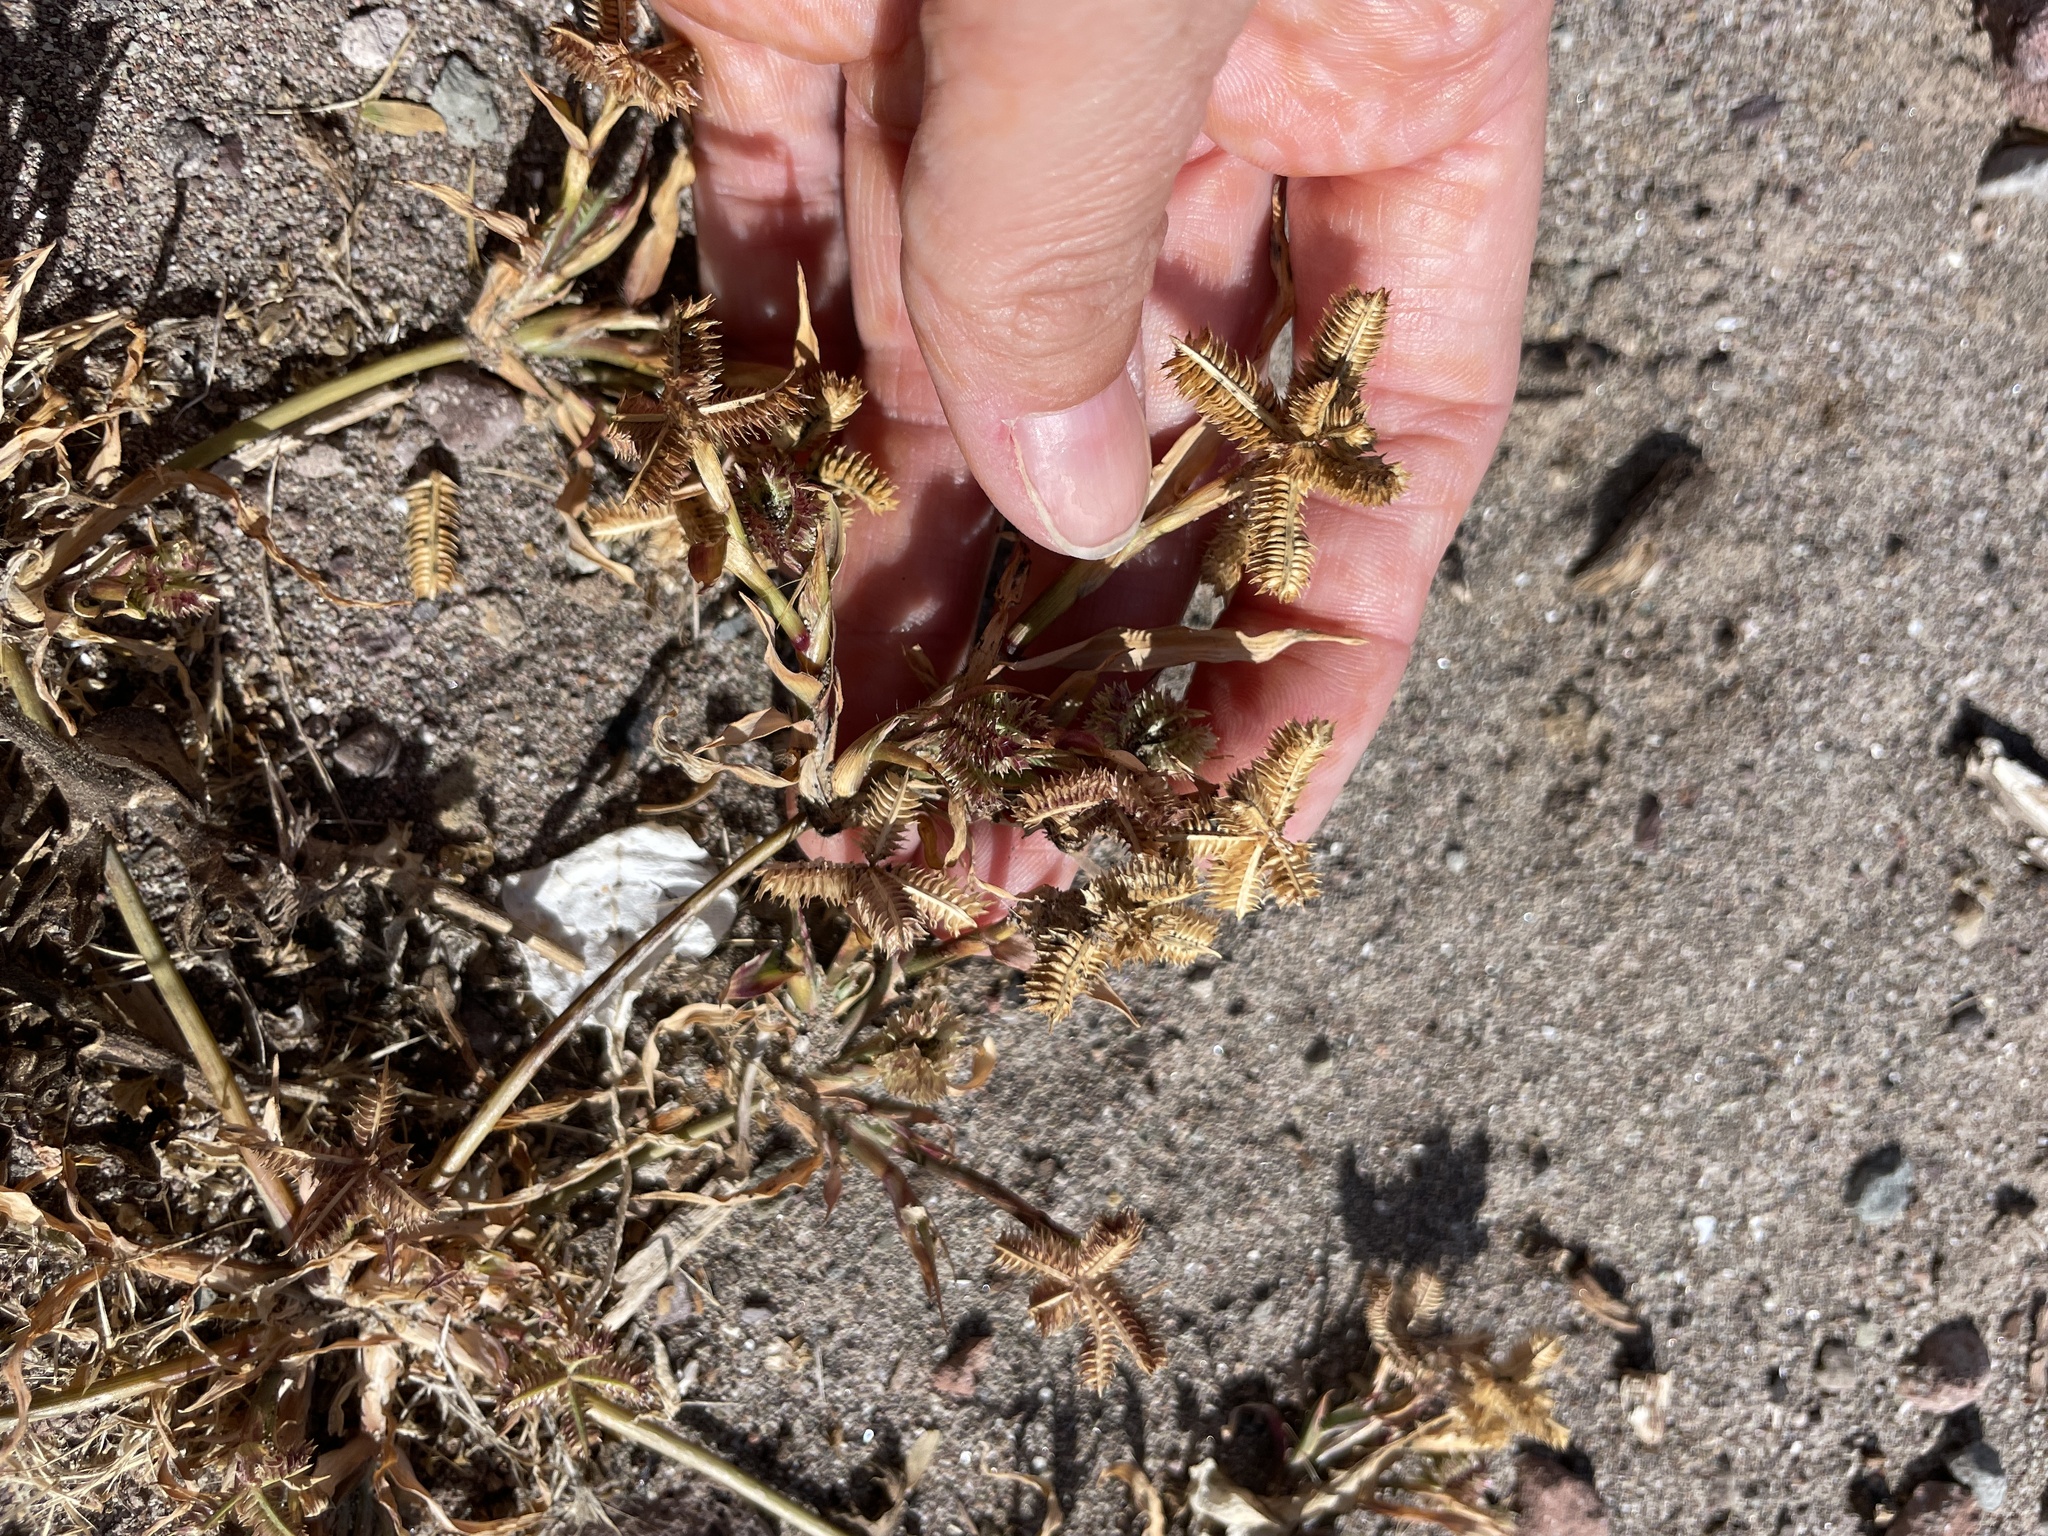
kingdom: Plantae
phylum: Tracheophyta
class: Liliopsida
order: Poales
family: Poaceae
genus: Dactyloctenium
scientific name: Dactyloctenium aegyptium
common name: Egyptian grass
